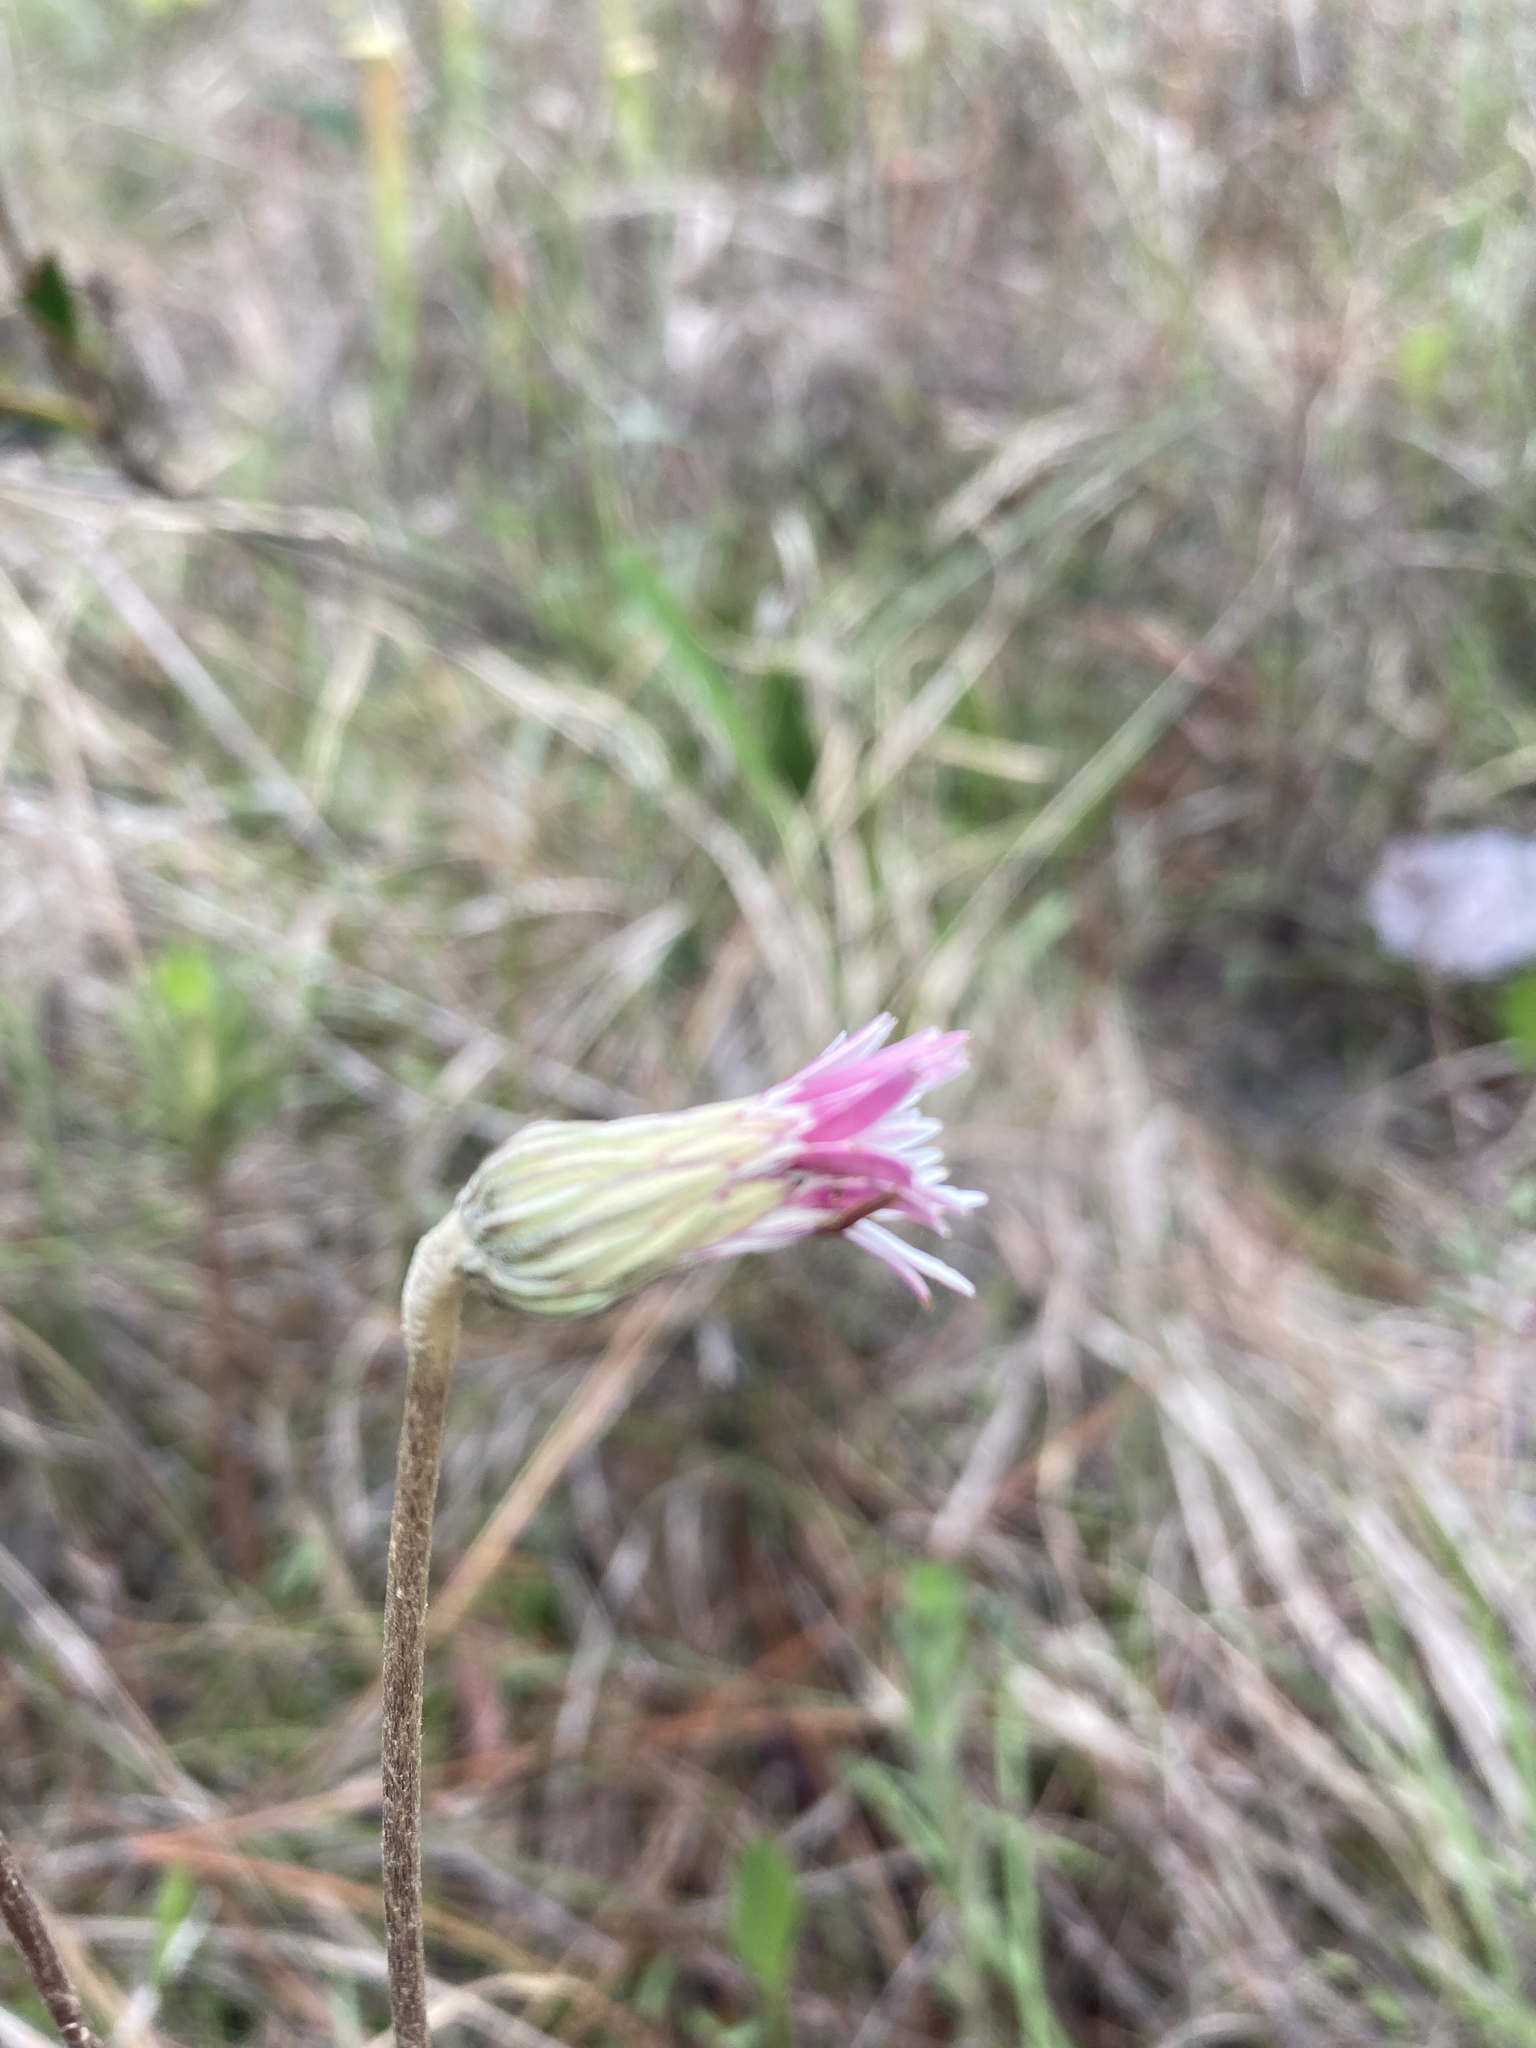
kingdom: Plantae
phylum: Tracheophyta
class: Magnoliopsida
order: Asterales
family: Asteraceae
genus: Chaptalia
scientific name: Chaptalia tomentosa
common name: Woolly sunbonnet
